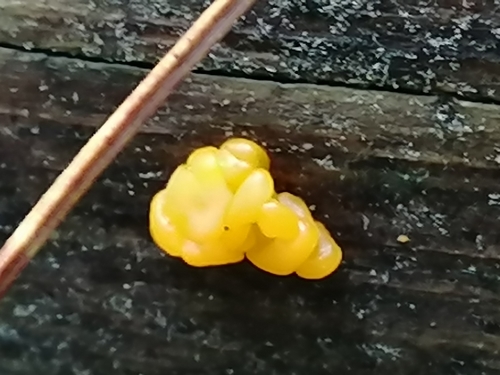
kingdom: Fungi
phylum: Basidiomycota
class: Dacrymycetes
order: Dacrymycetales
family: Dacrymycetaceae
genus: Dacrymyces
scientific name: Dacrymyces chrysospermus
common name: Orange jelly spot
